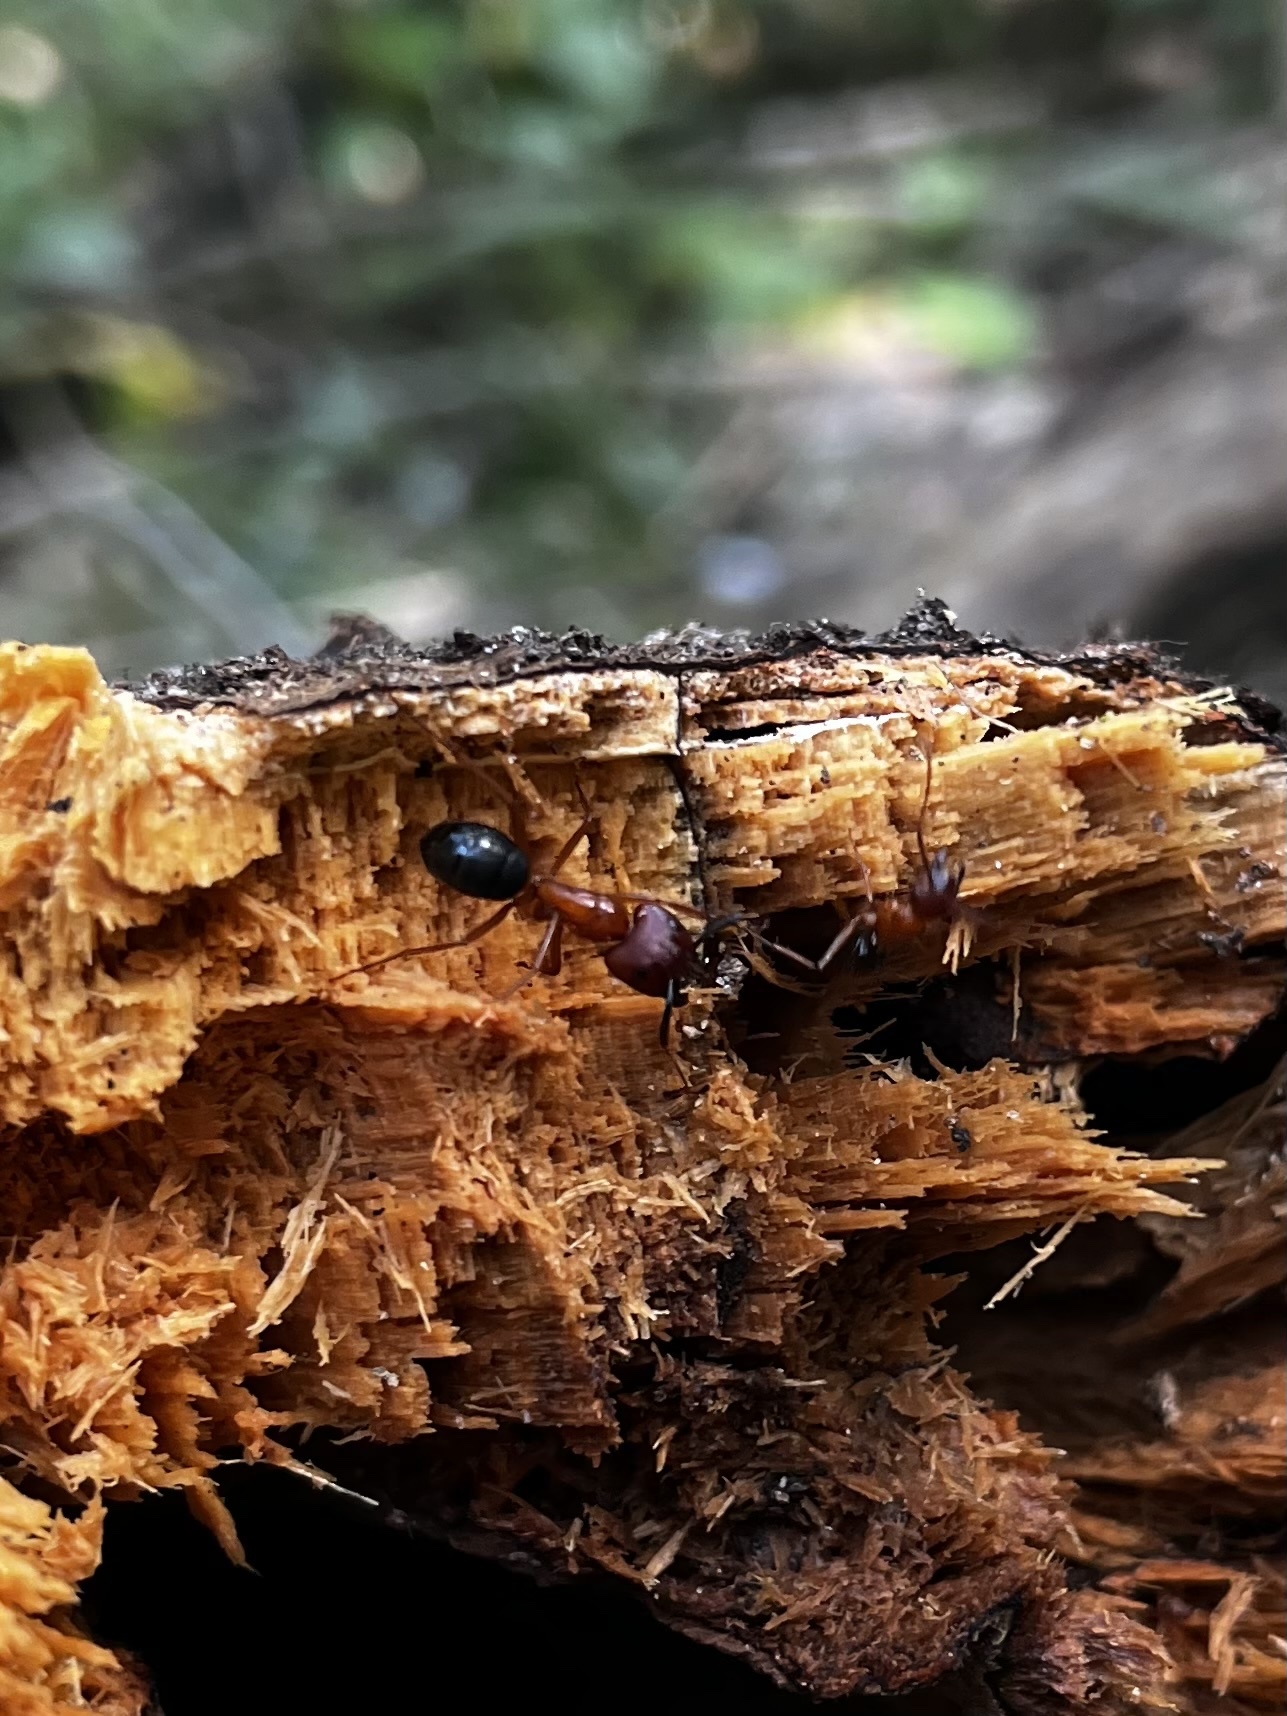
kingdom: Animalia
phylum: Arthropoda
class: Insecta
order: Hymenoptera
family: Formicidae
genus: Camponotus
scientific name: Camponotus floridanus
